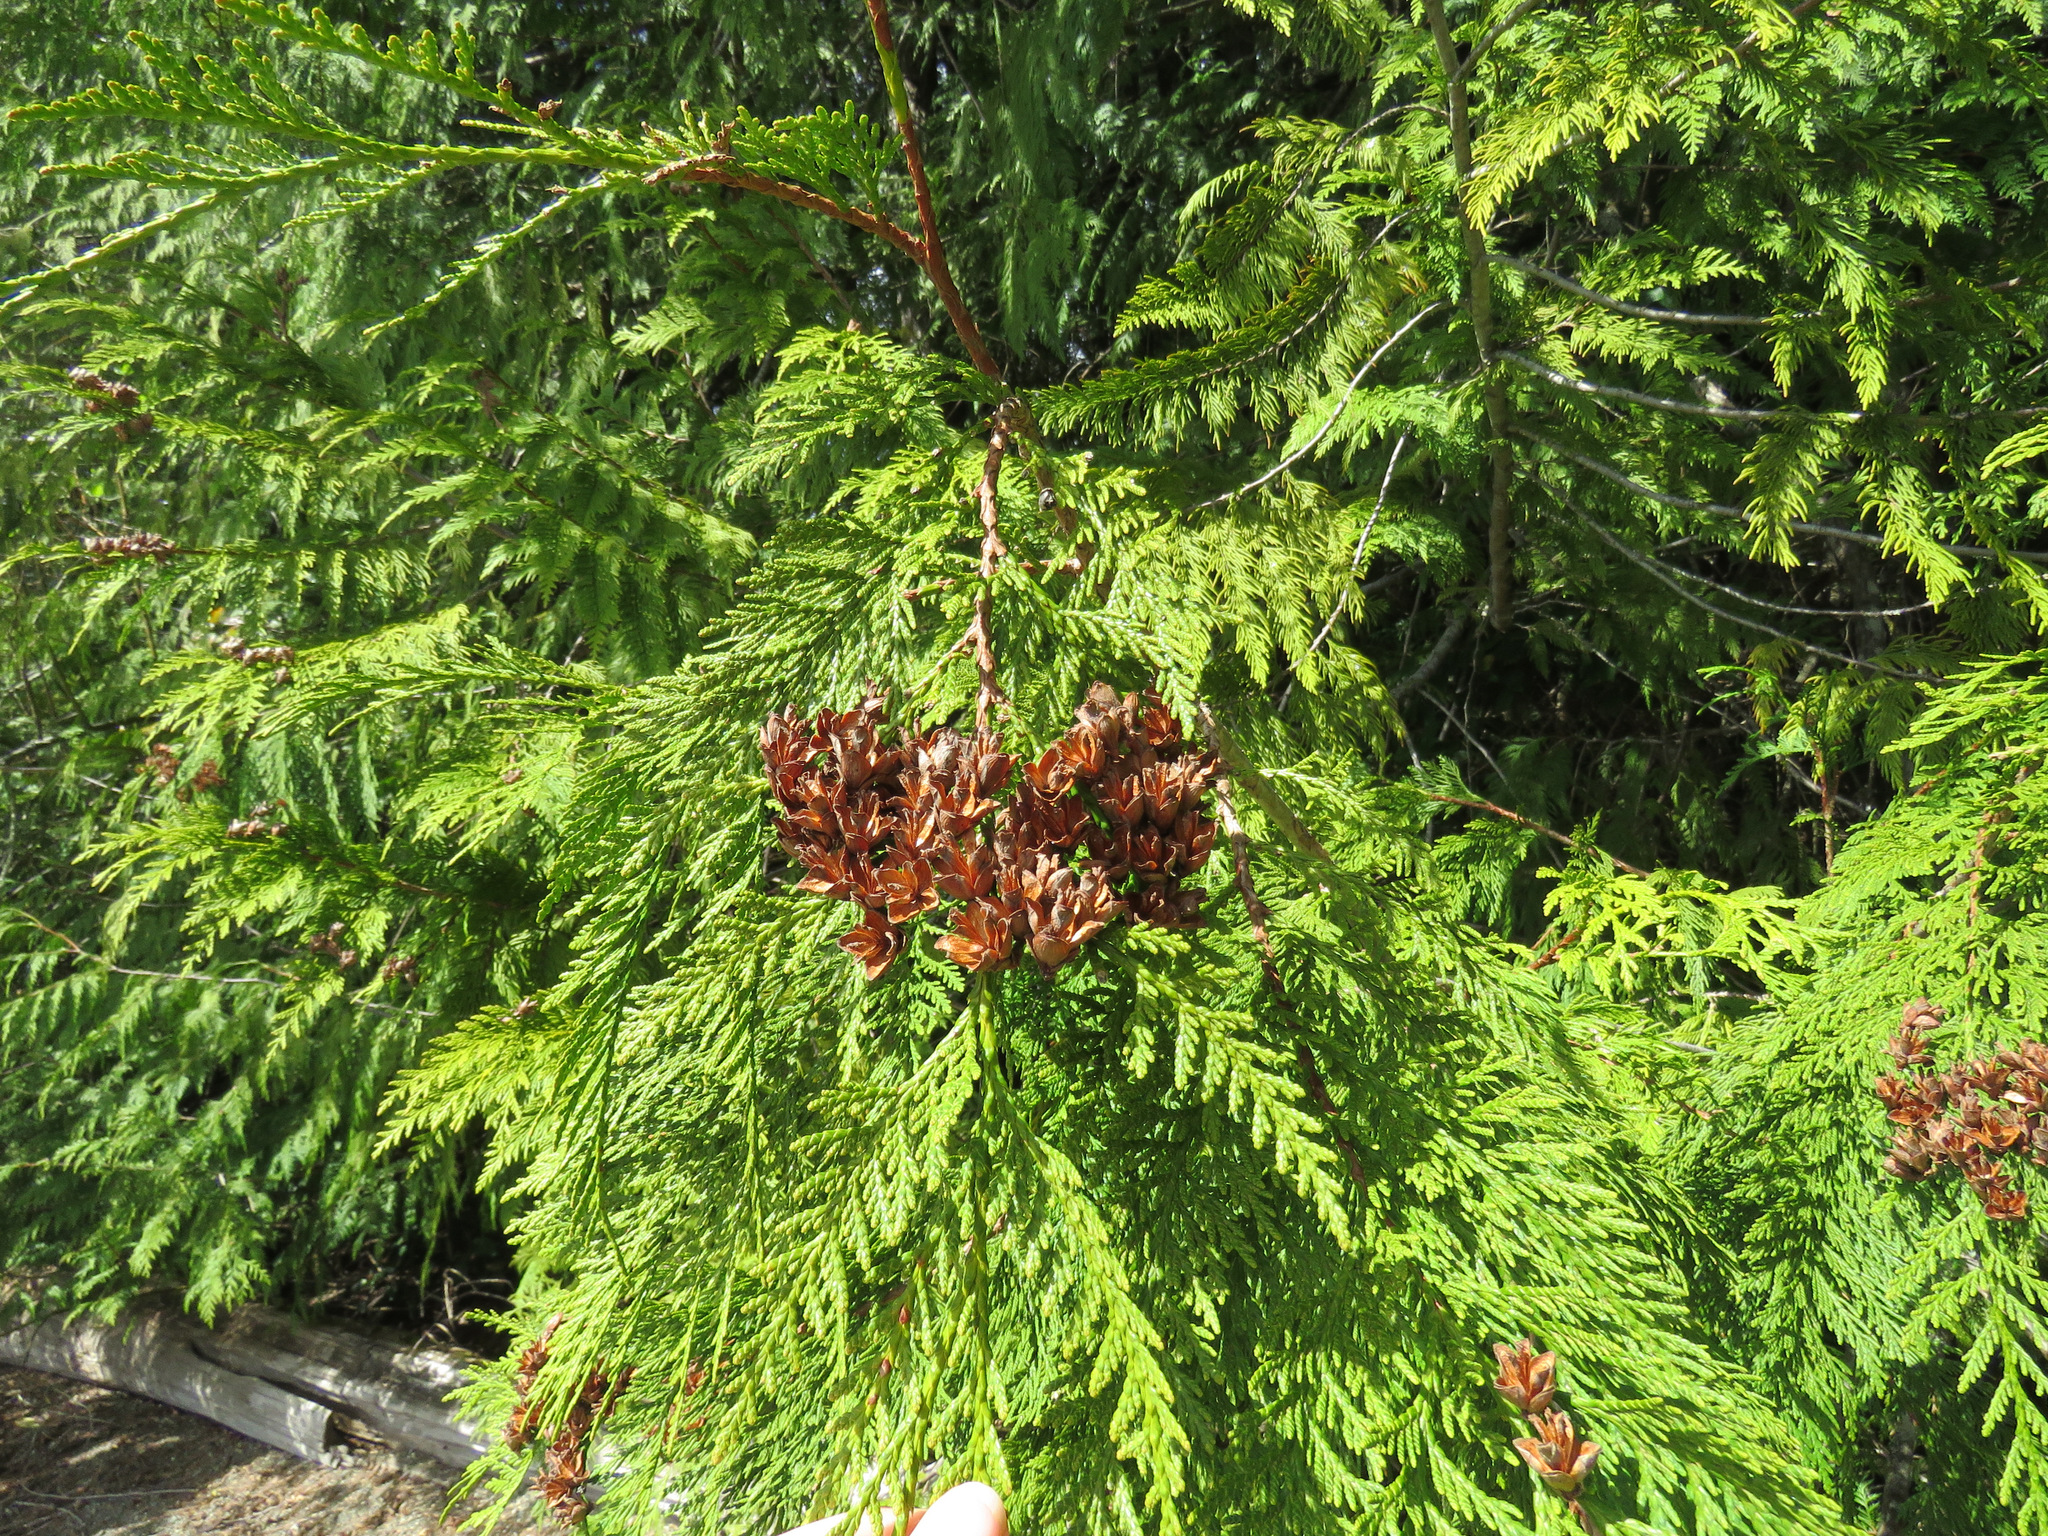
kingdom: Plantae
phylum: Tracheophyta
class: Pinopsida
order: Pinales
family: Cupressaceae
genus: Thuja
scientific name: Thuja plicata
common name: Western red-cedar
